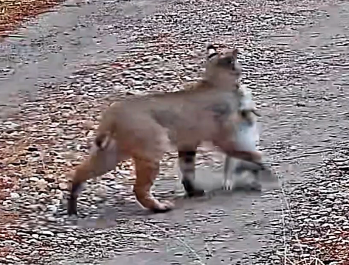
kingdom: Animalia
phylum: Chordata
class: Mammalia
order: Carnivora
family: Felidae
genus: Lynx
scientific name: Lynx rufus
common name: Bobcat
